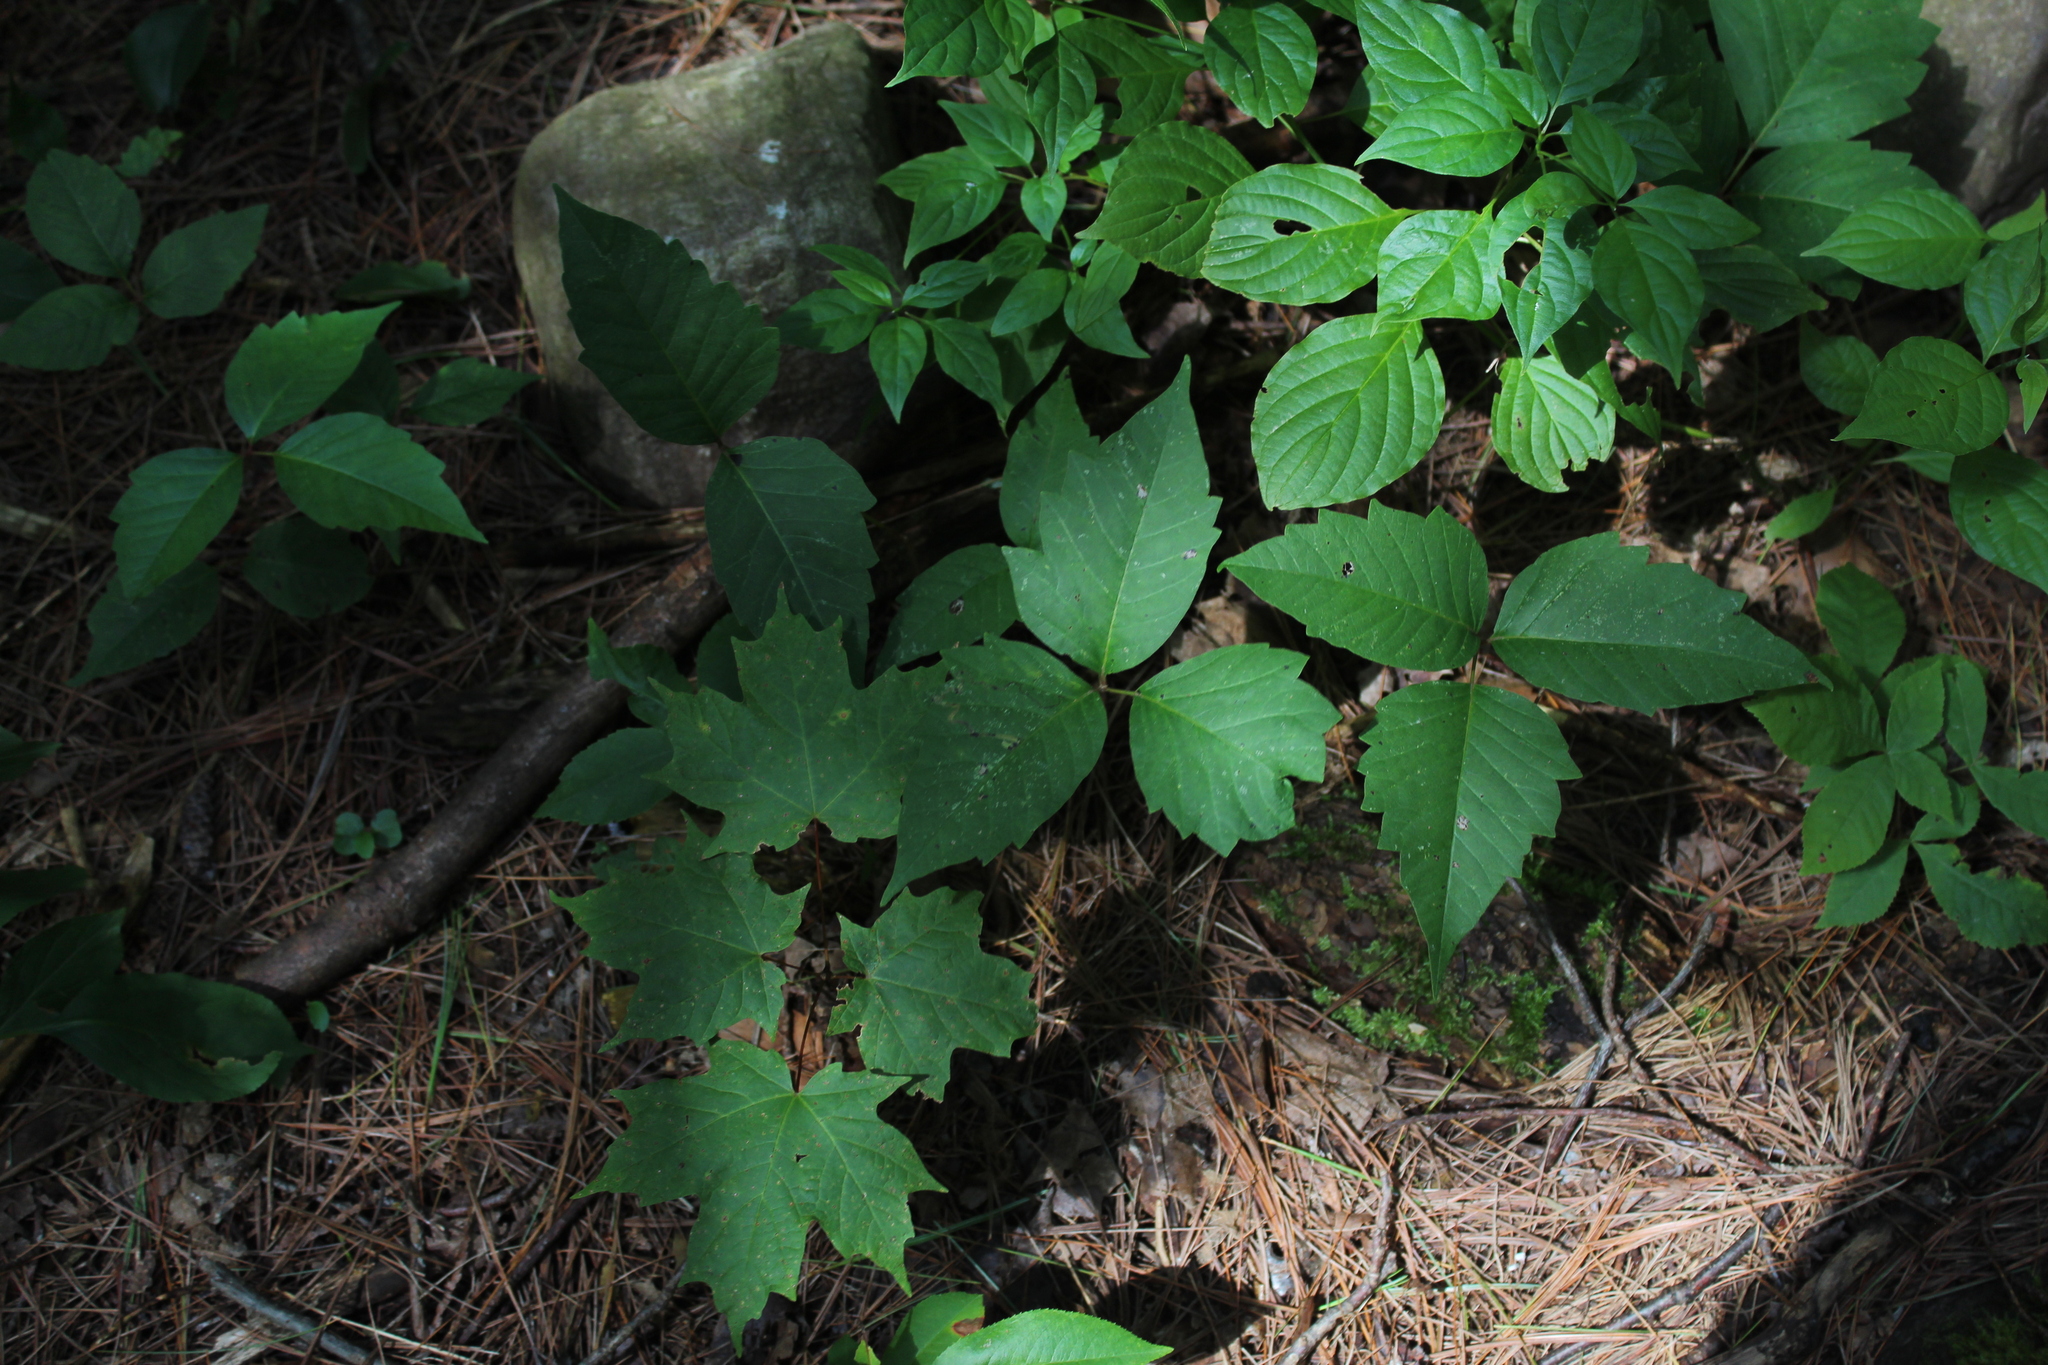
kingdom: Plantae
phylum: Tracheophyta
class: Magnoliopsida
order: Sapindales
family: Anacardiaceae
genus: Toxicodendron
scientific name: Toxicodendron
